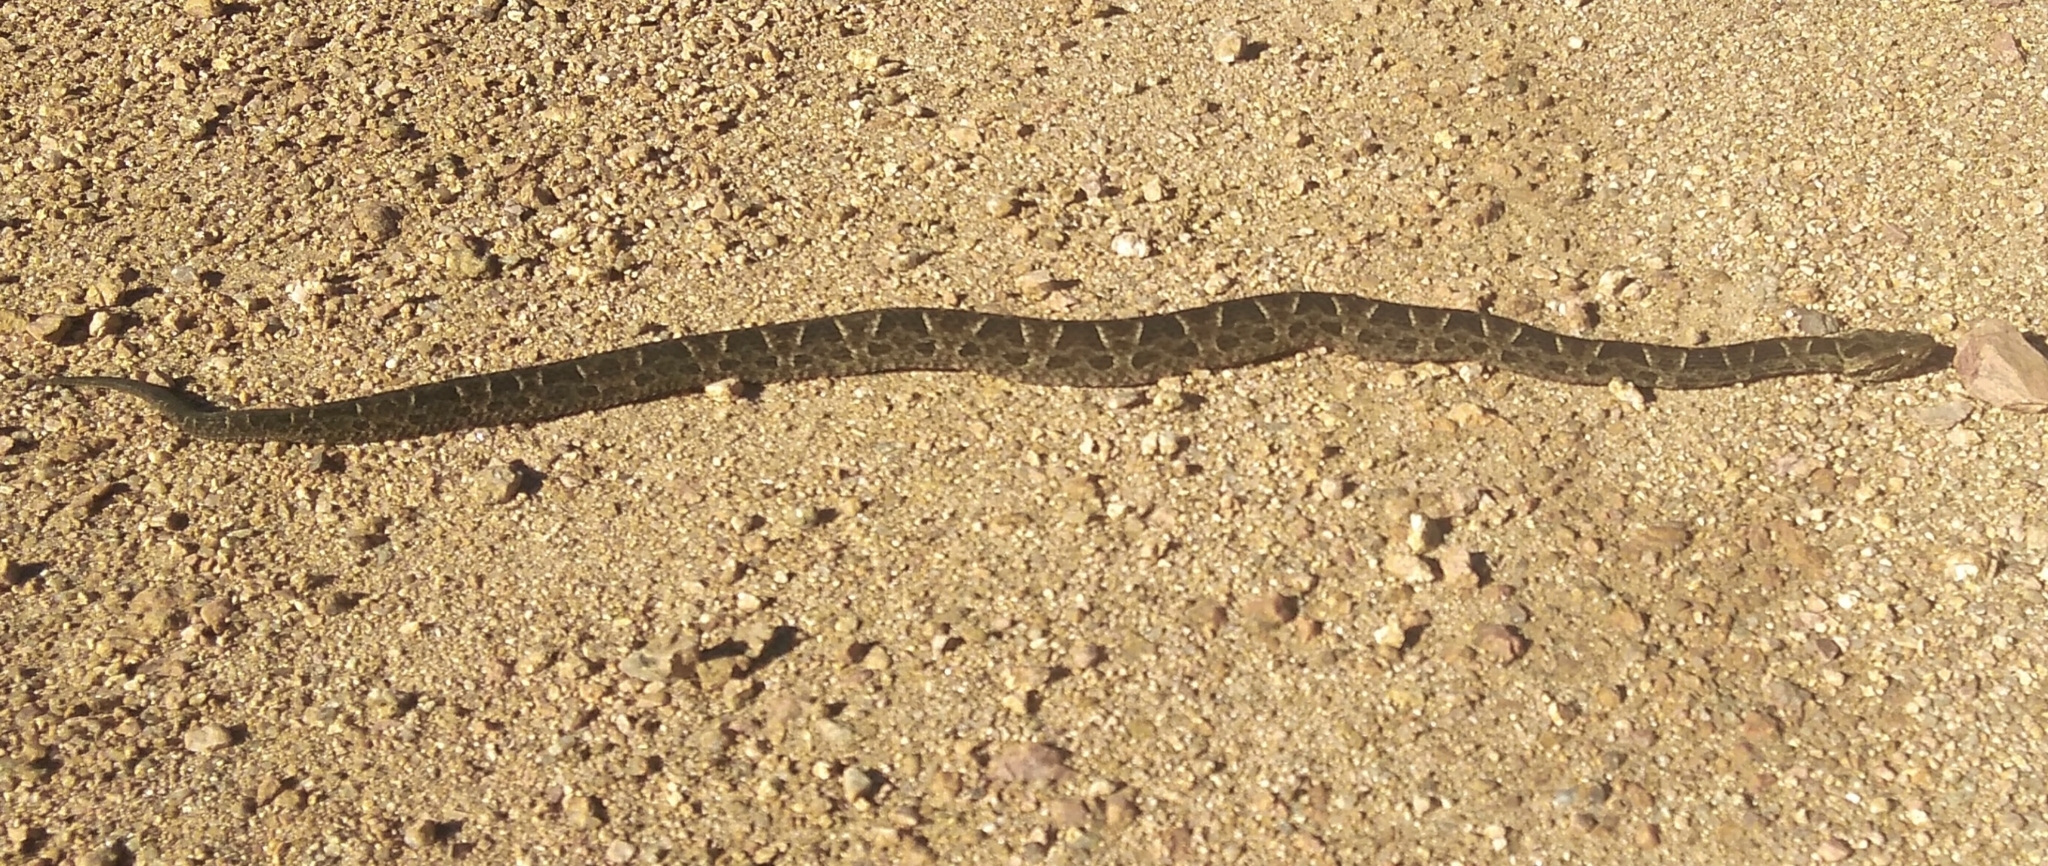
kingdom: Animalia
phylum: Chordata
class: Squamata
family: Viperidae
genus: Bothrops
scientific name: Bothrops pubescens
